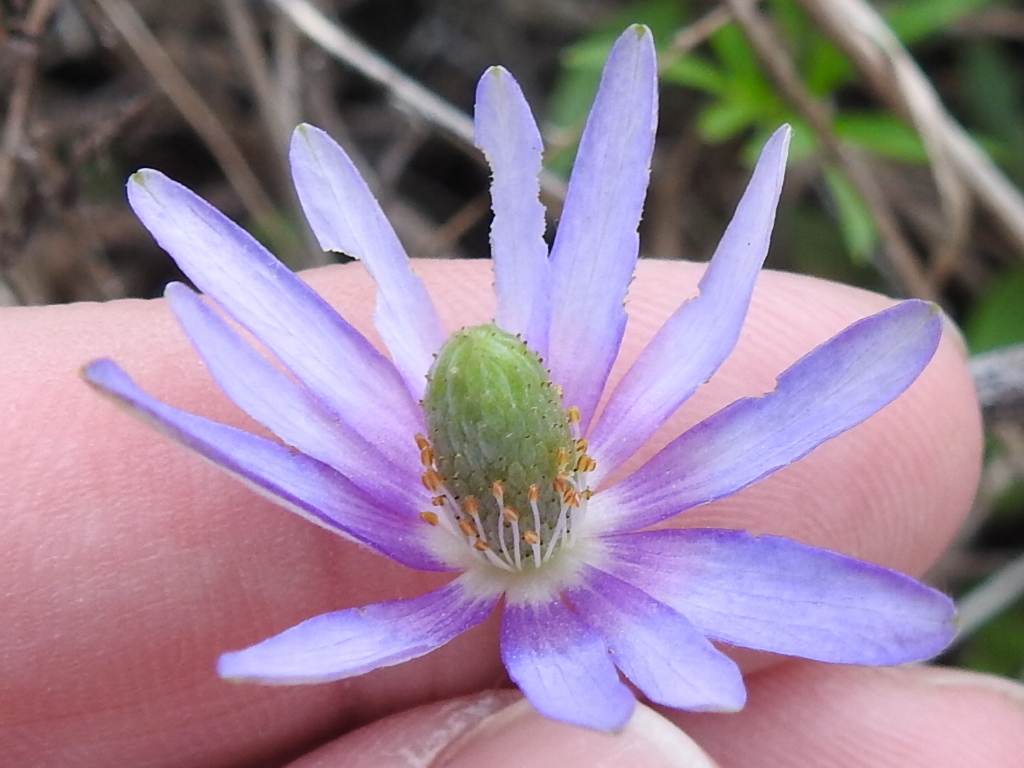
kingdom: Plantae
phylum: Tracheophyta
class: Magnoliopsida
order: Ranunculales
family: Ranunculaceae
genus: Anemone
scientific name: Anemone berlandieri
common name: Ten-petal anemone
